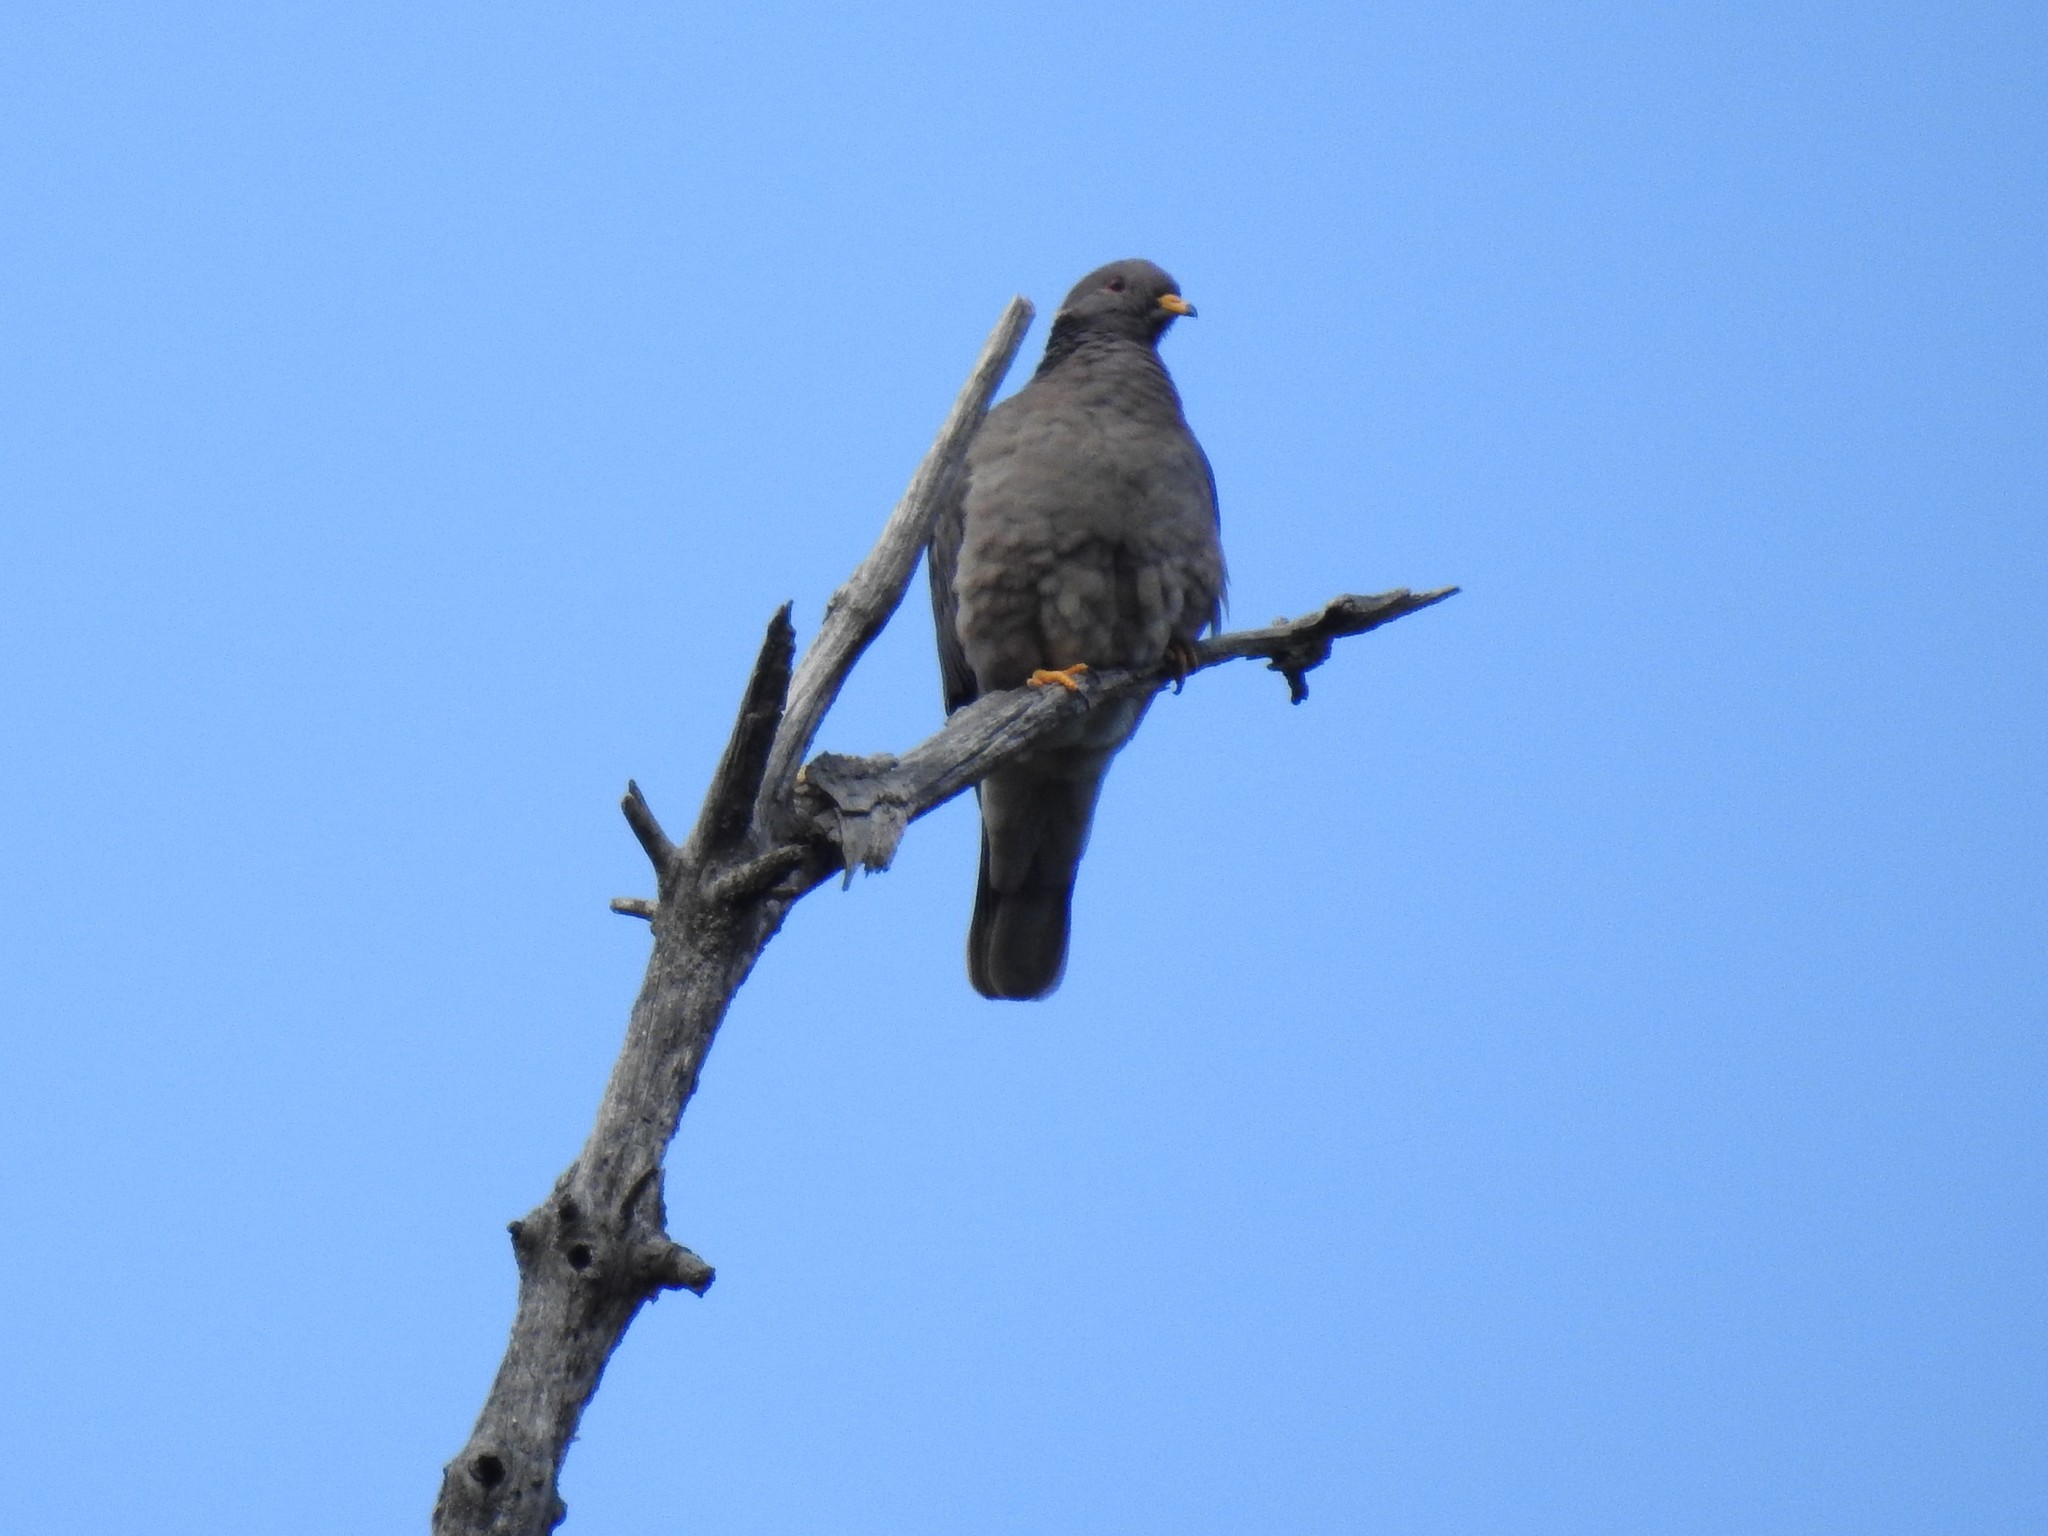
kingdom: Animalia
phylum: Chordata
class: Aves
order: Columbiformes
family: Columbidae
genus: Patagioenas
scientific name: Patagioenas fasciata
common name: Band-tailed pigeon
